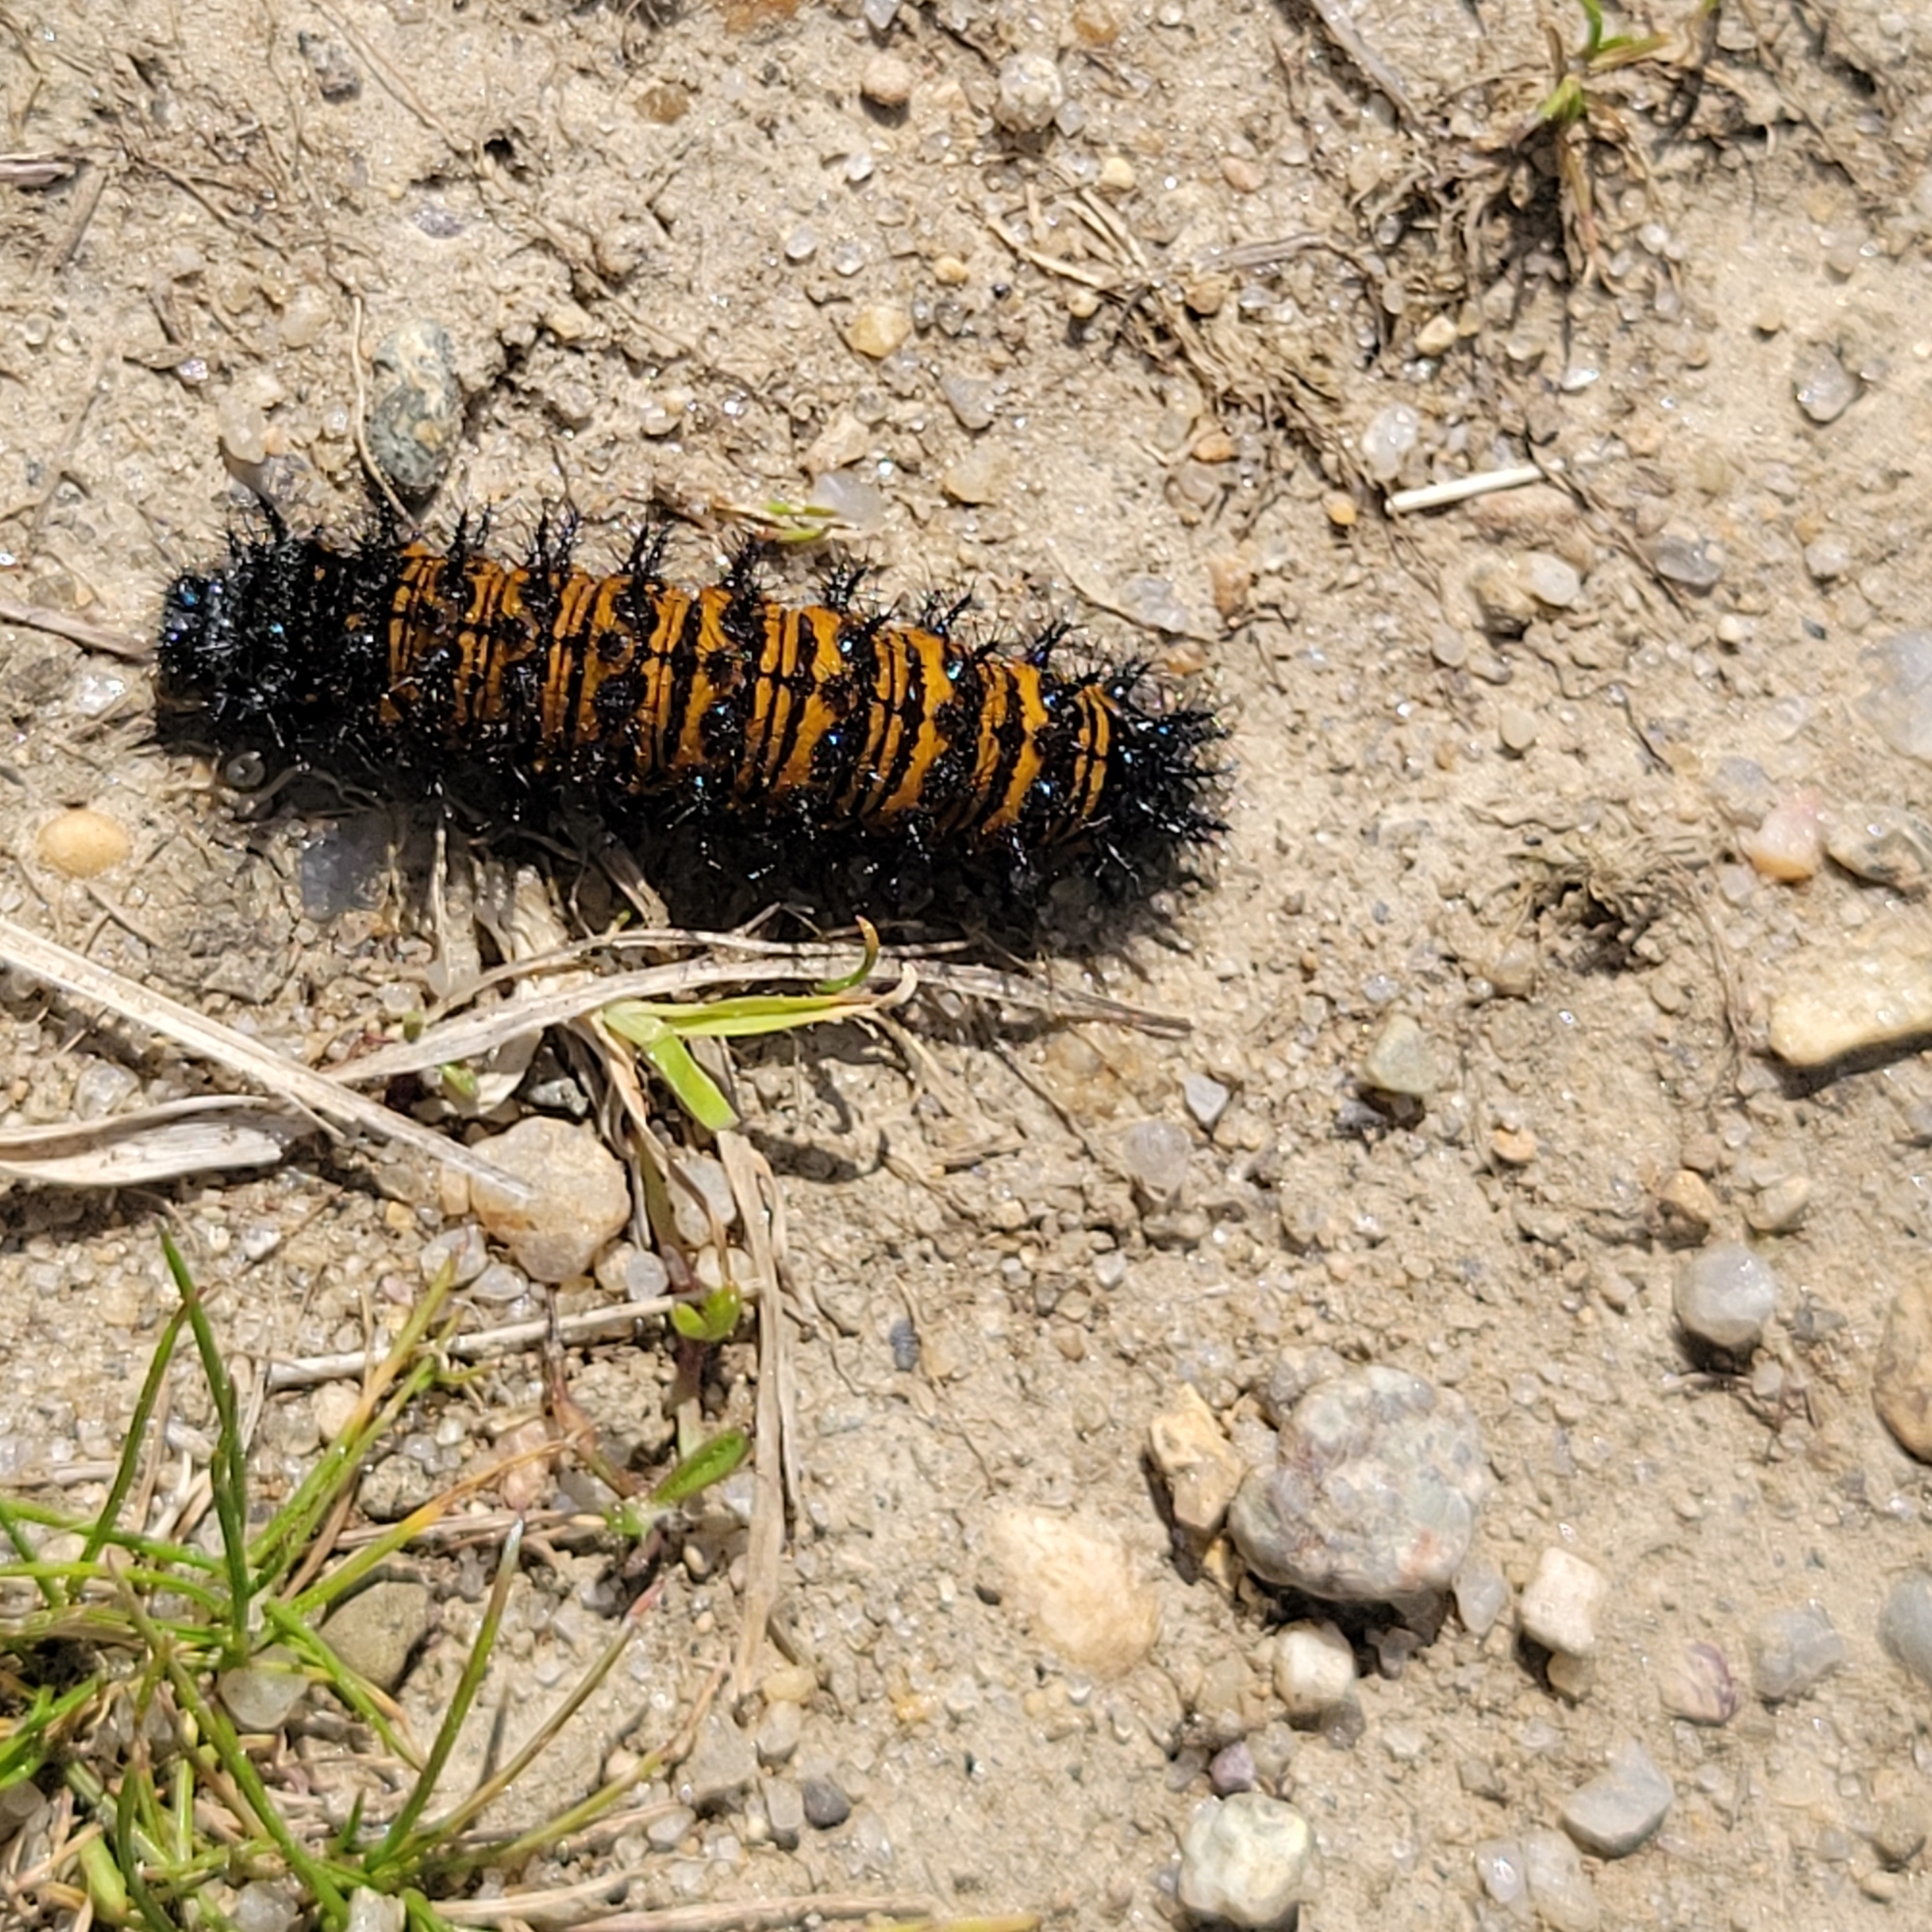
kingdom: Animalia
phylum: Arthropoda
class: Insecta
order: Lepidoptera
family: Nymphalidae
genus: Euphydryas
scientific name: Euphydryas phaeton
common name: Baltimore checkerspot
